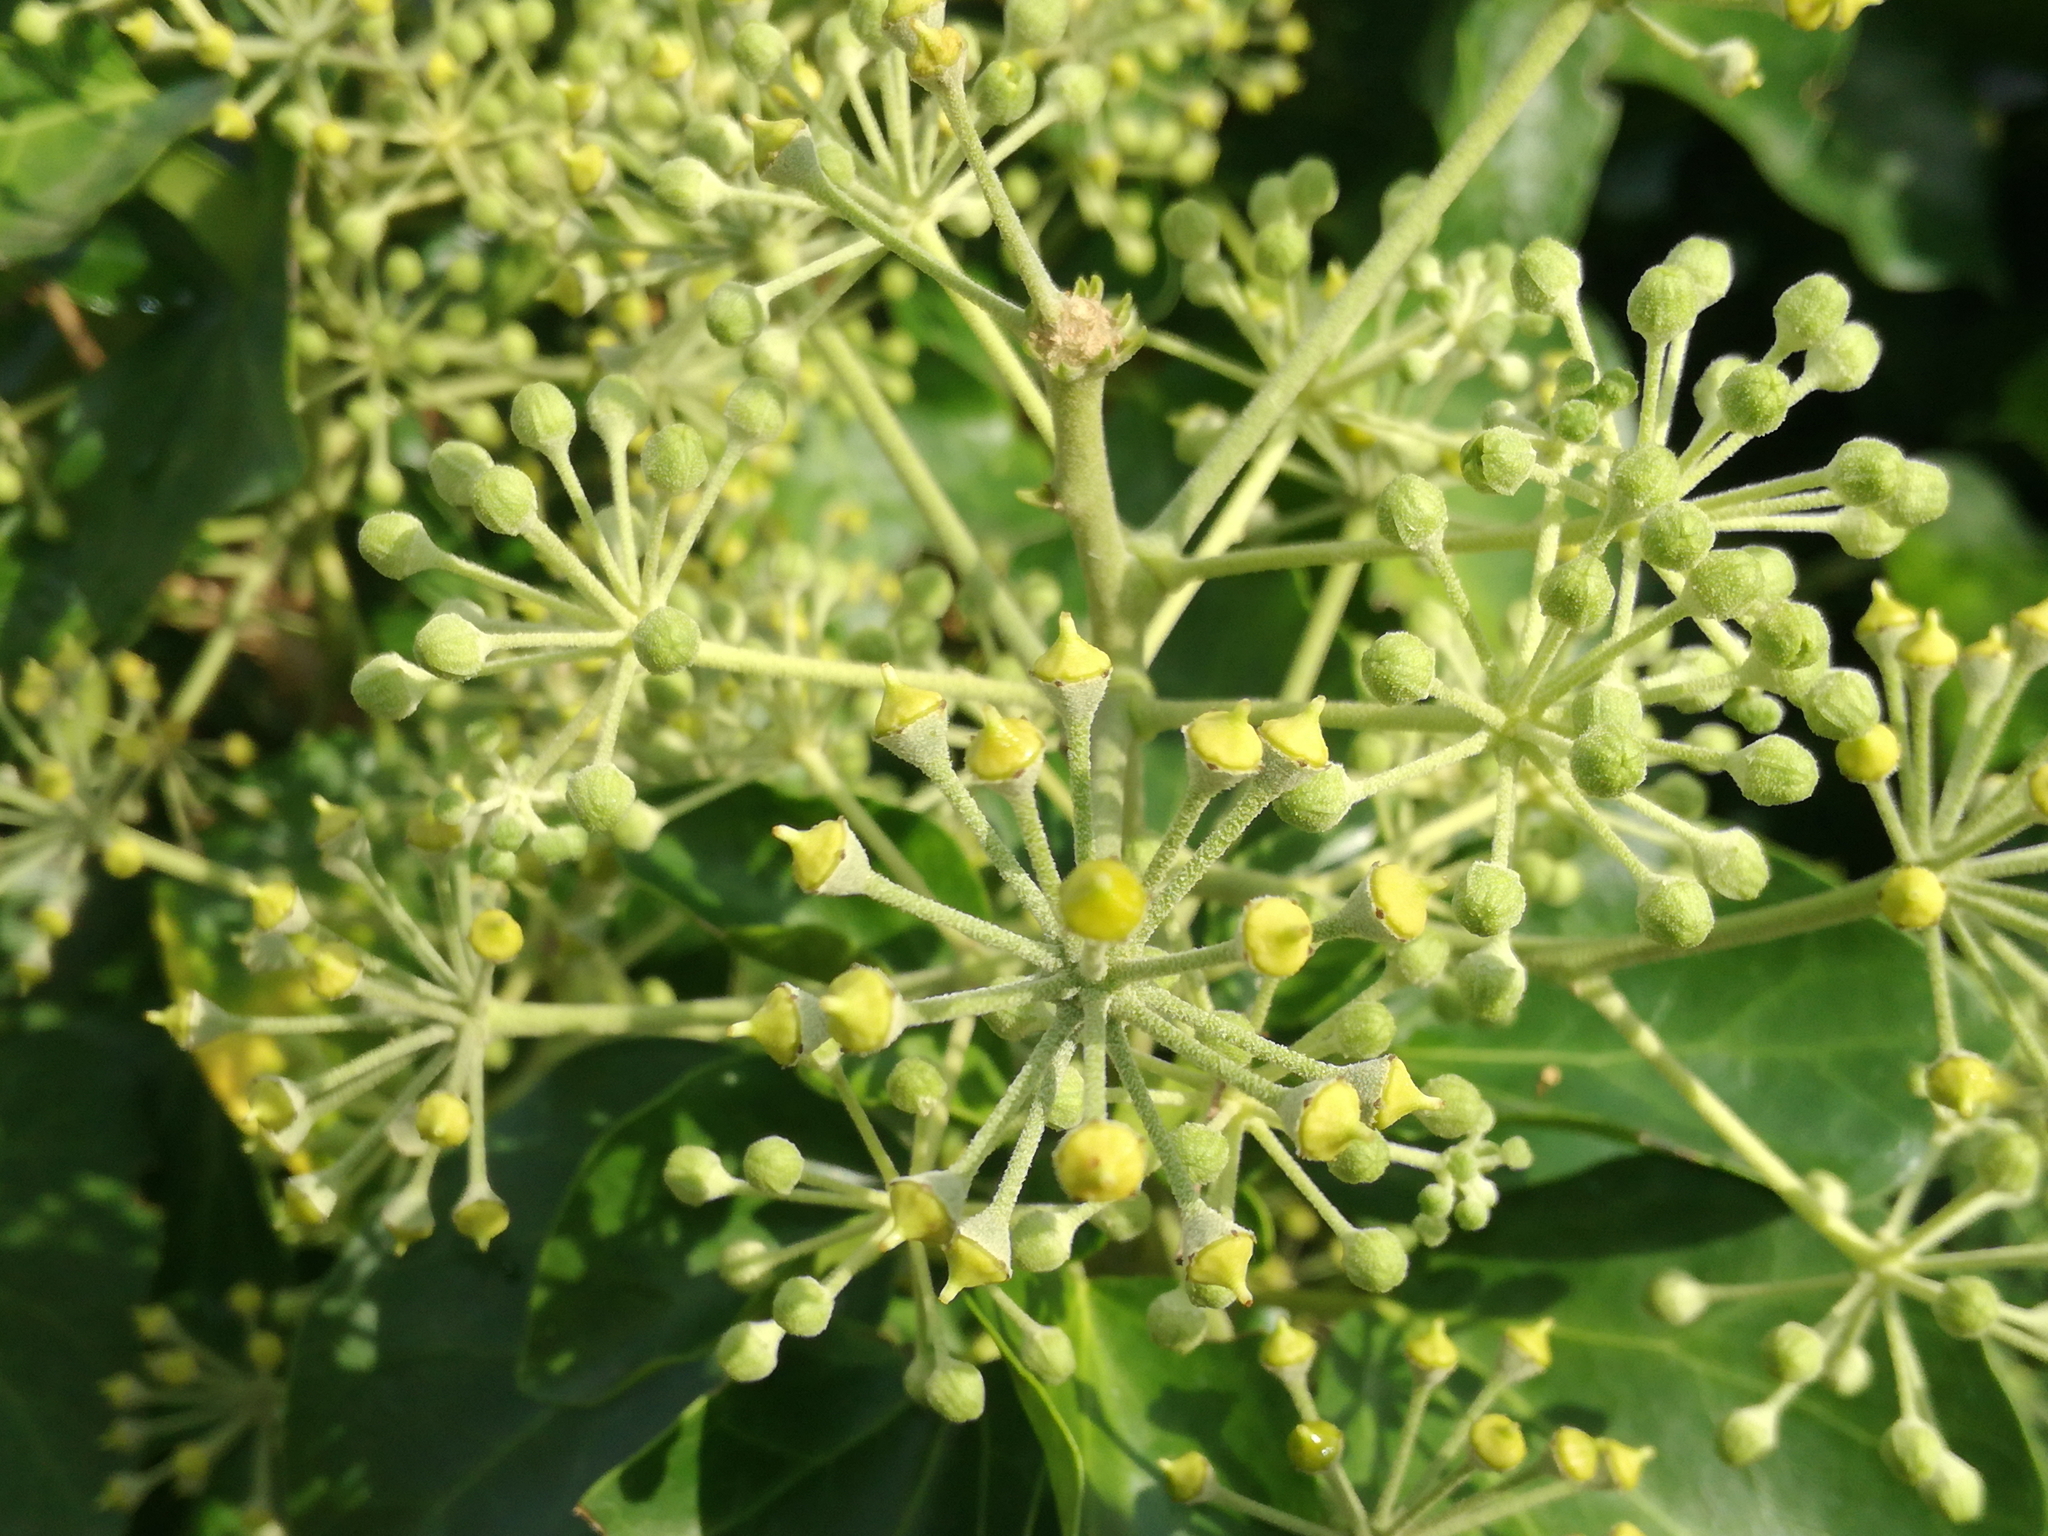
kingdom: Plantae
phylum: Tracheophyta
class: Magnoliopsida
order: Apiales
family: Araliaceae
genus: Hedera
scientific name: Hedera helix
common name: Ivy
